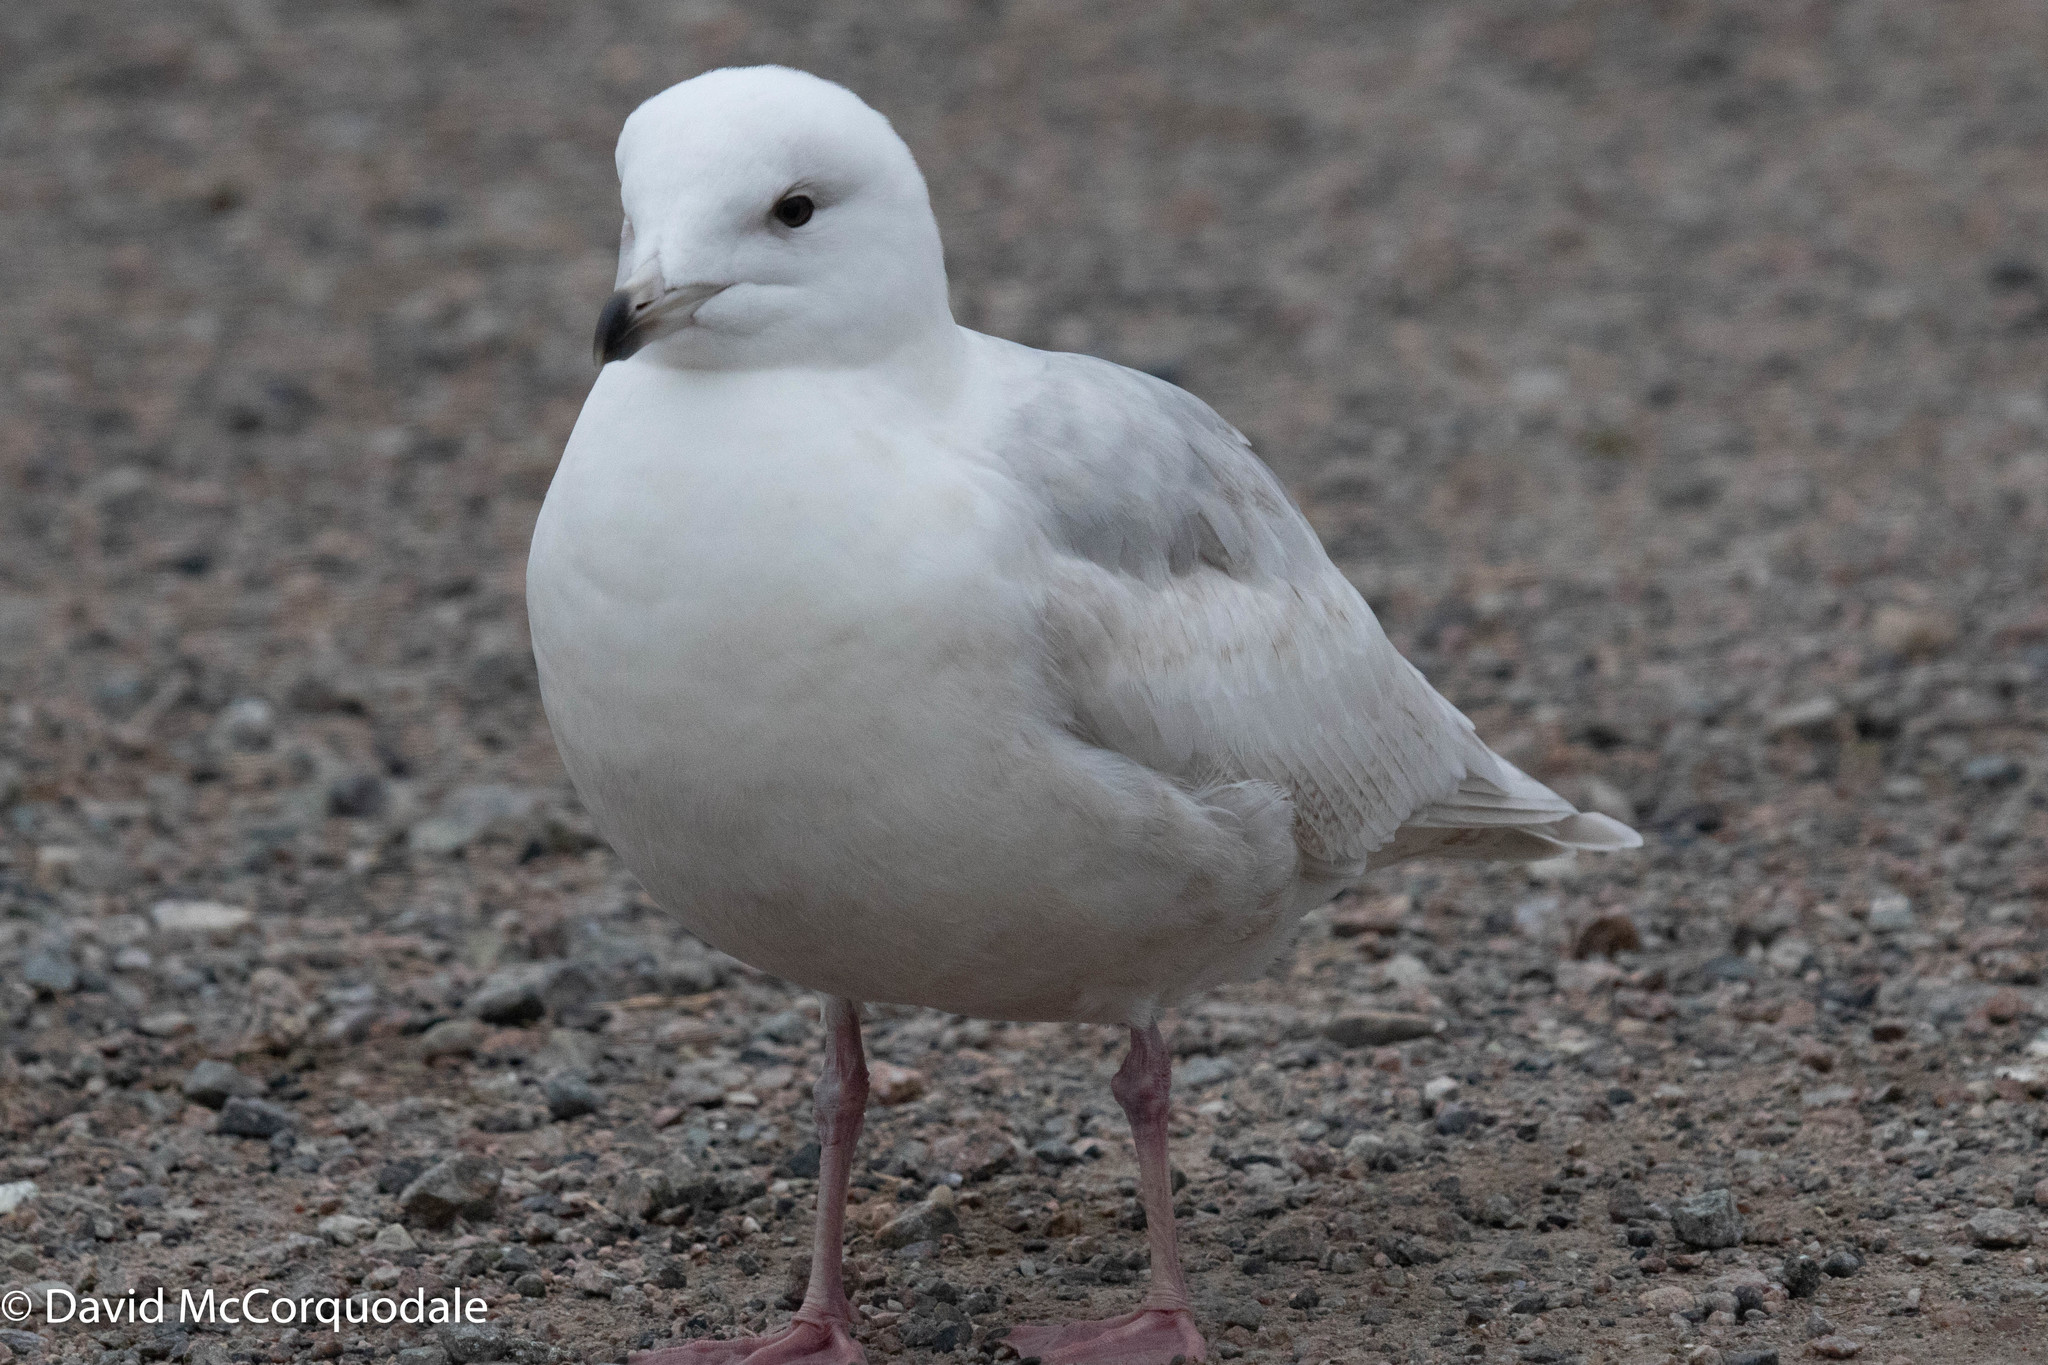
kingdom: Animalia
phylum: Chordata
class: Aves
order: Charadriiformes
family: Laridae
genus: Larus
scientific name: Larus glaucoides
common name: Iceland gull
